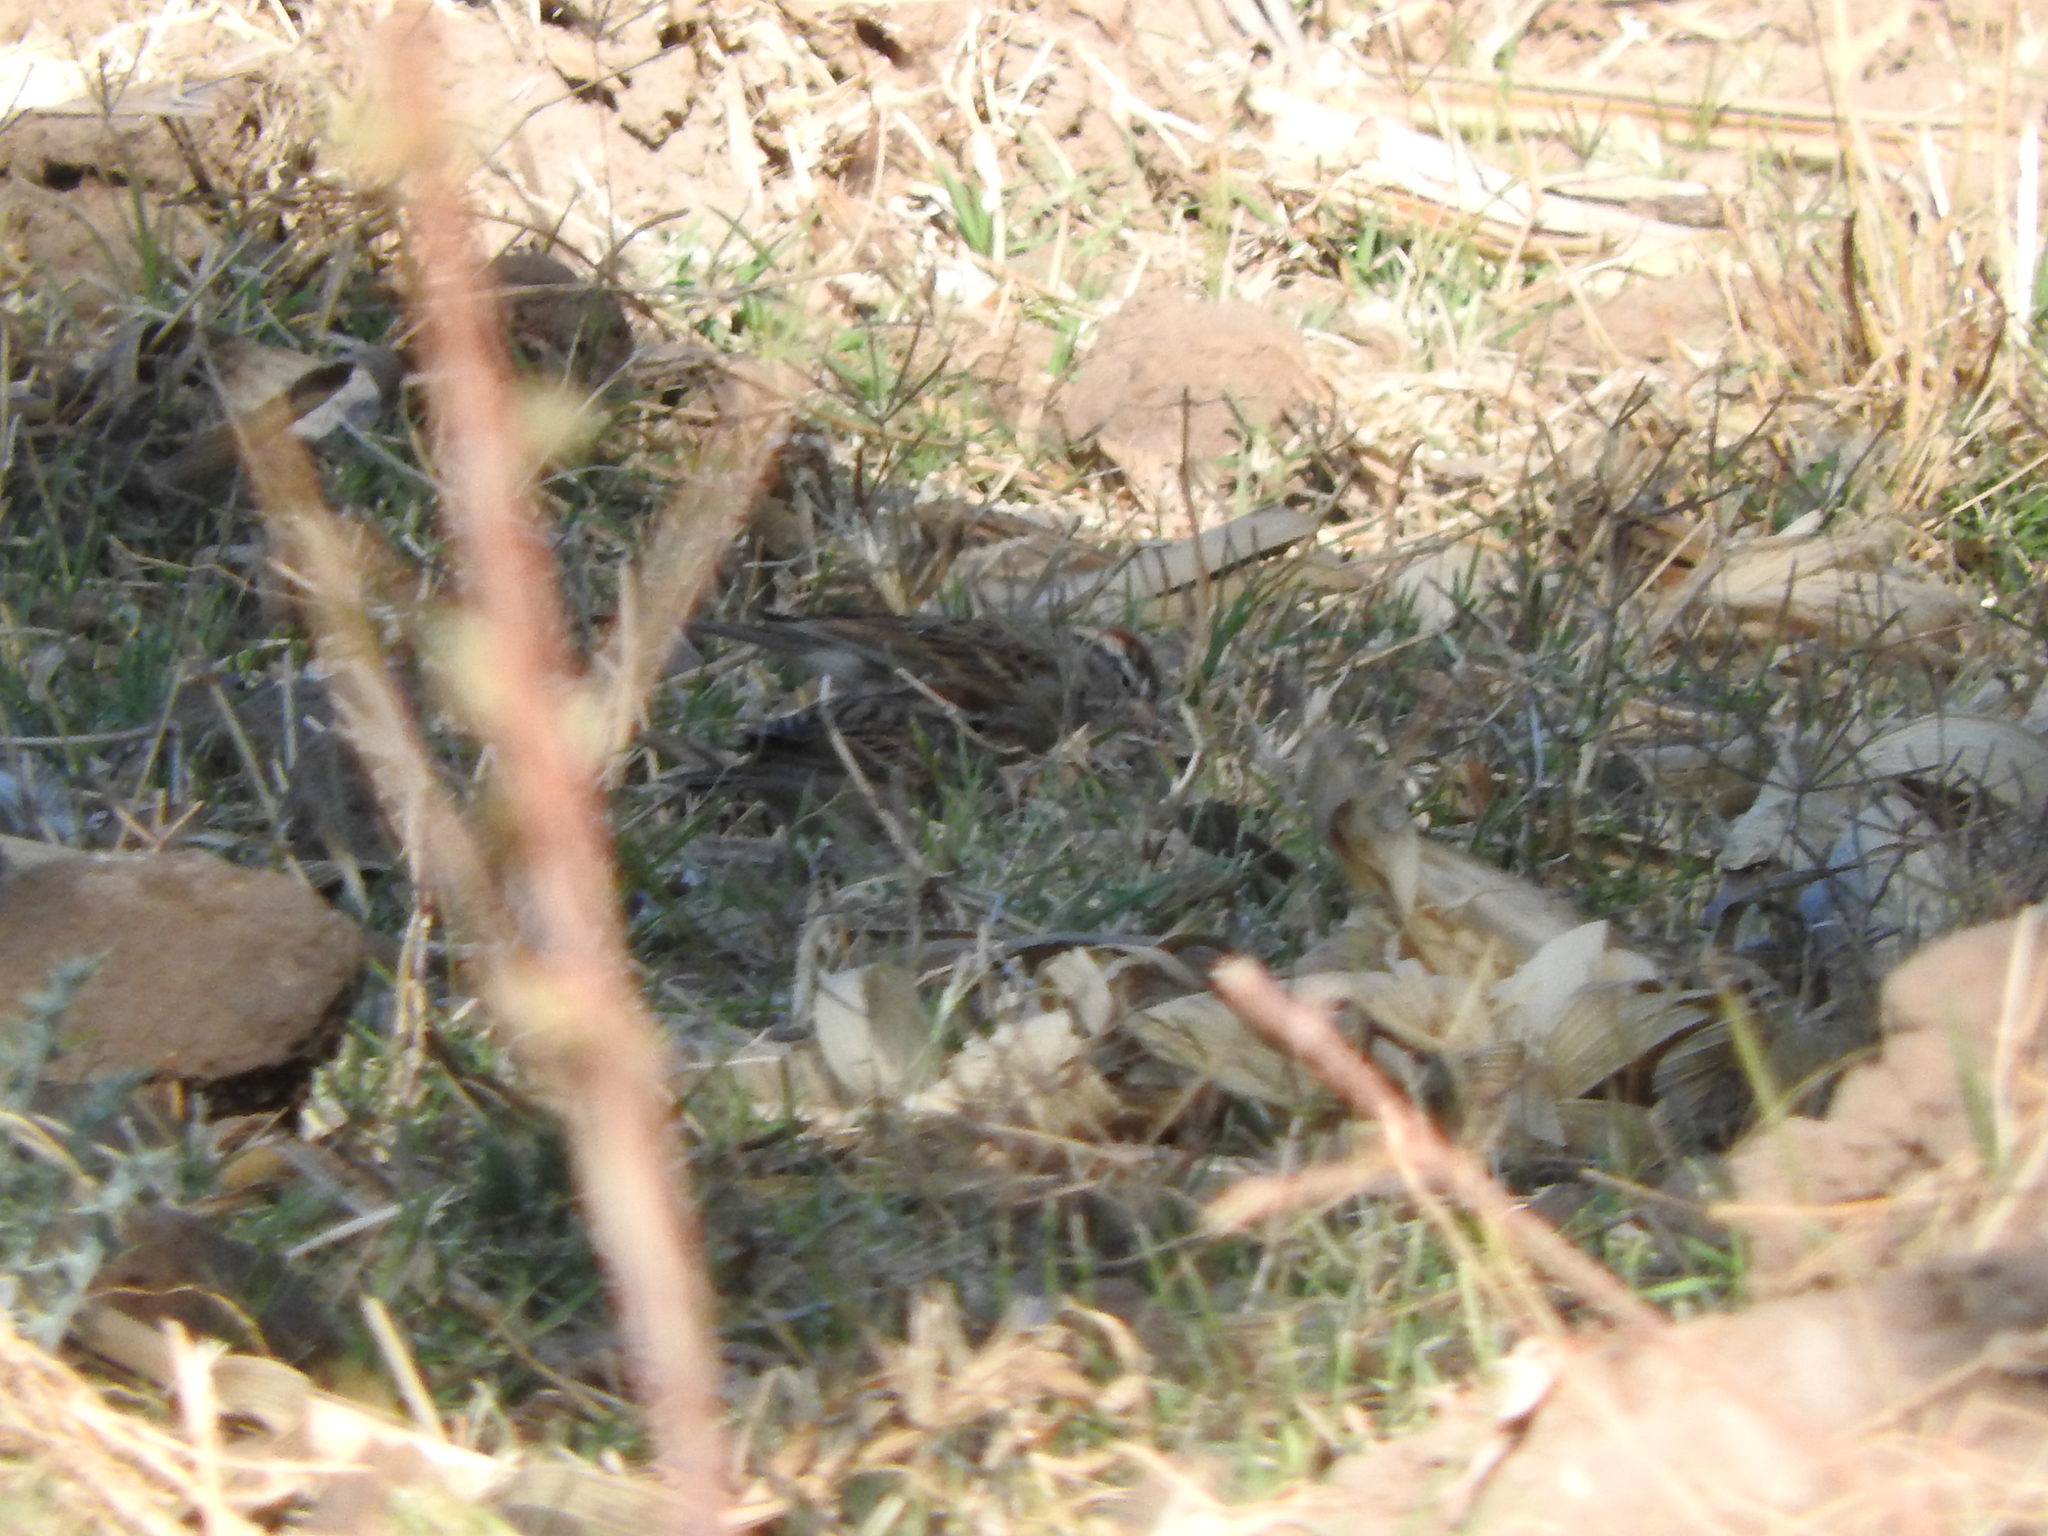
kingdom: Animalia
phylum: Chordata
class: Aves
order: Passeriformes
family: Passerellidae
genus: Spizella
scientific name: Spizella passerina
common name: Chipping sparrow
